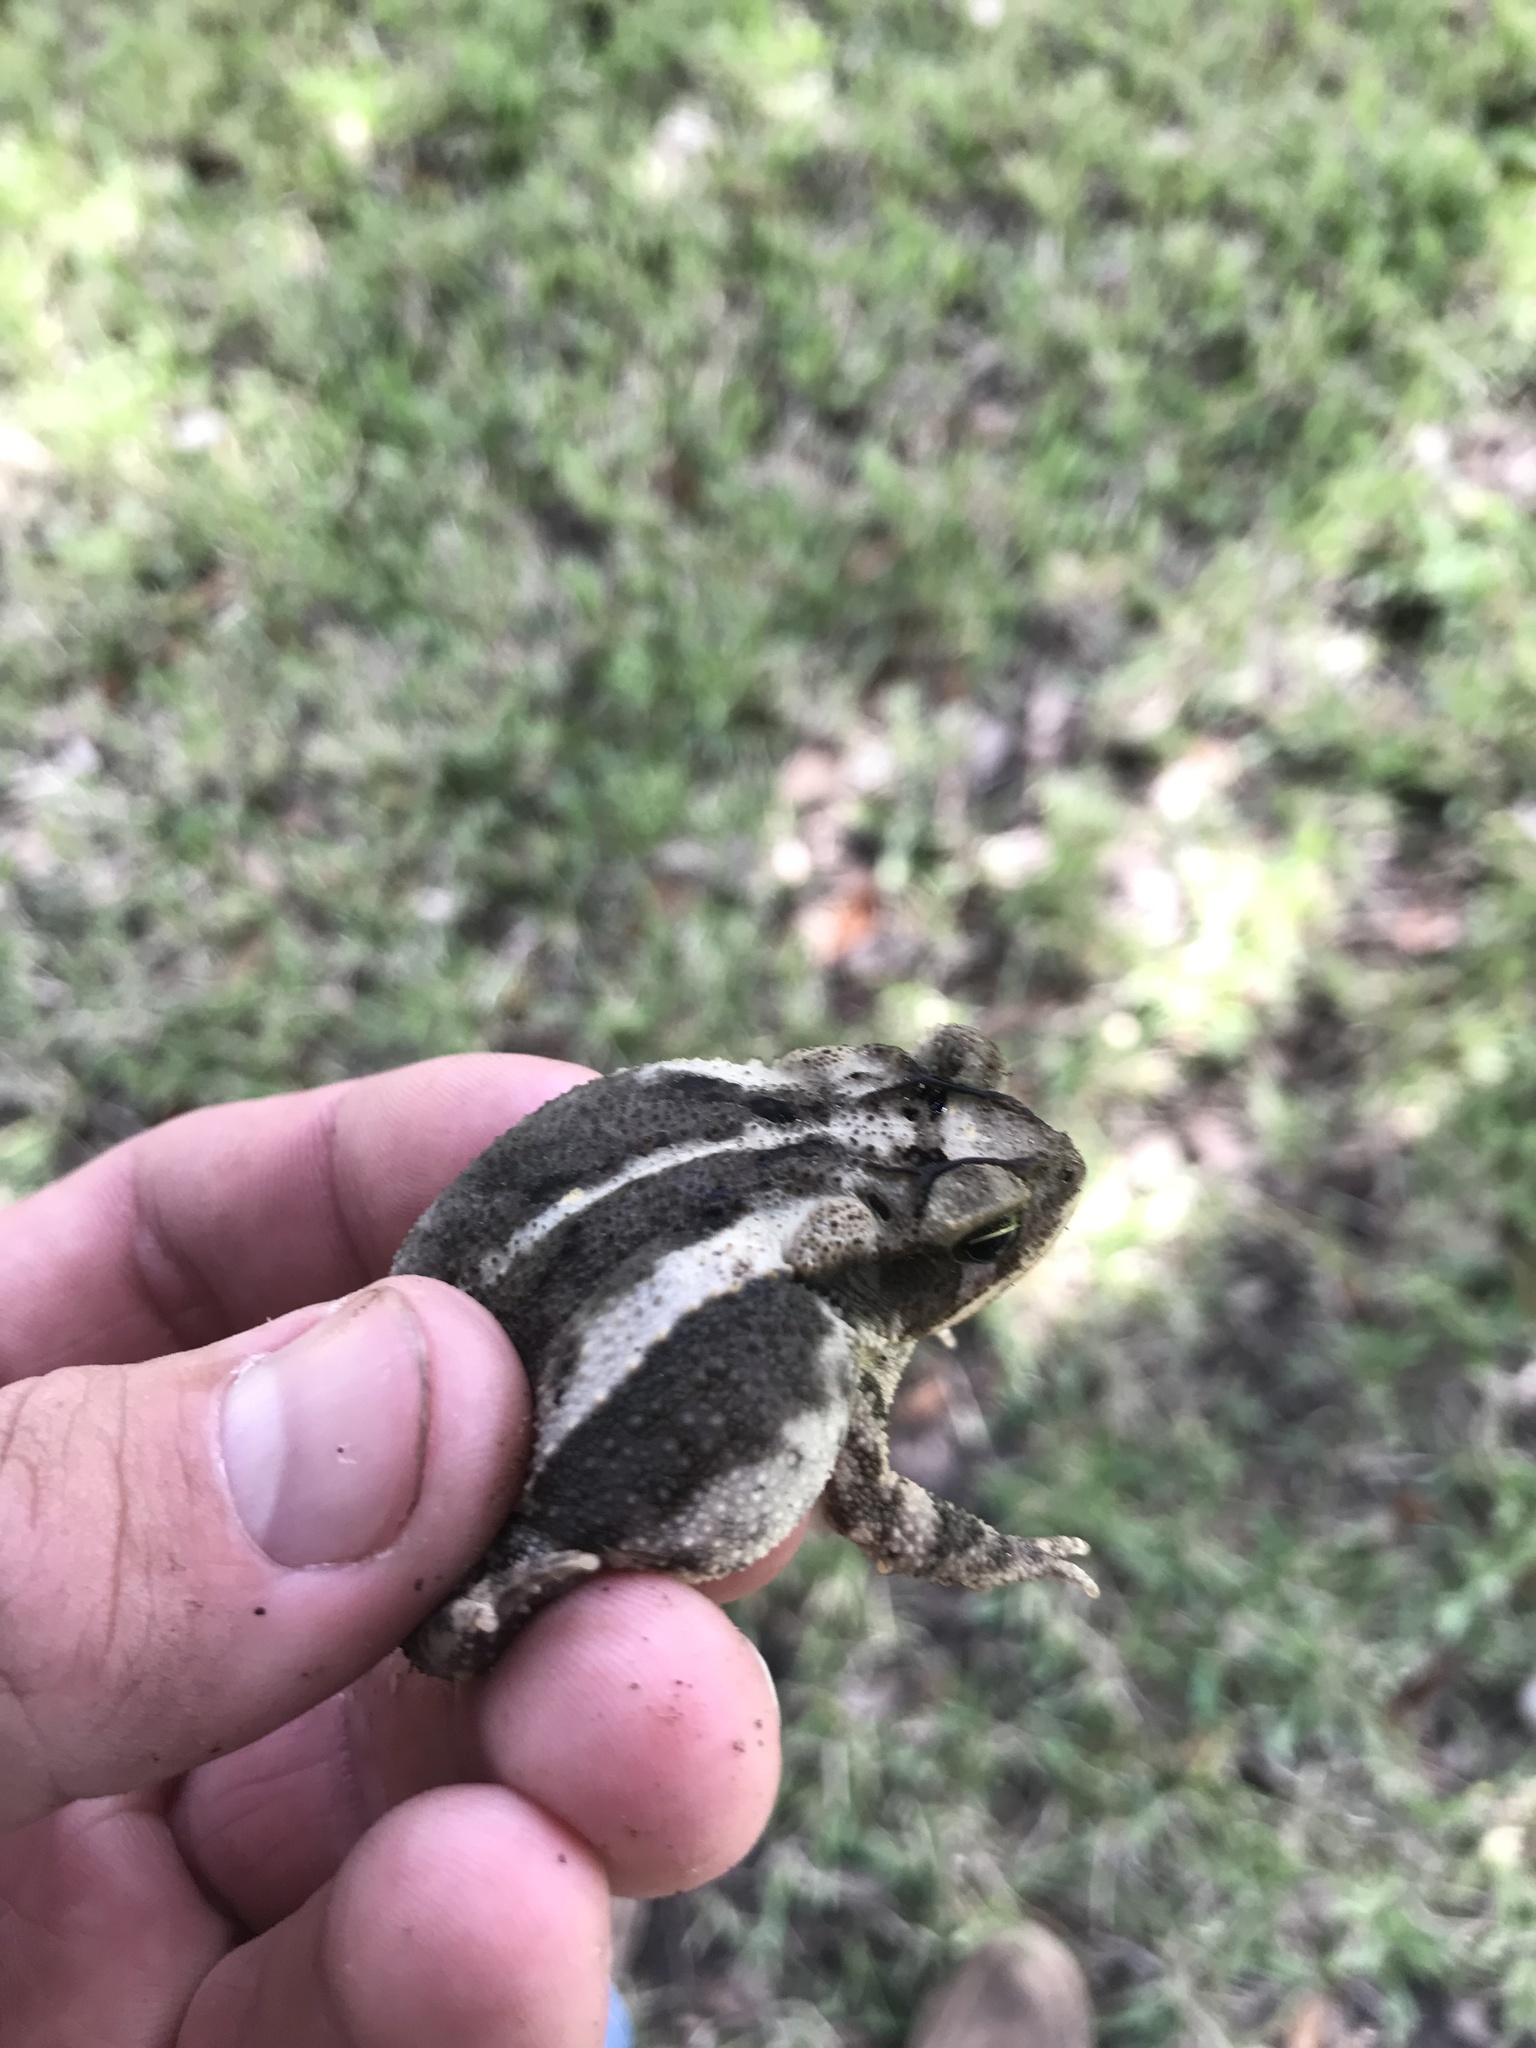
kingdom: Animalia
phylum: Chordata
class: Amphibia
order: Anura
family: Bufonidae
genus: Incilius
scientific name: Incilius nebulifer
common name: Gulf coast toad
